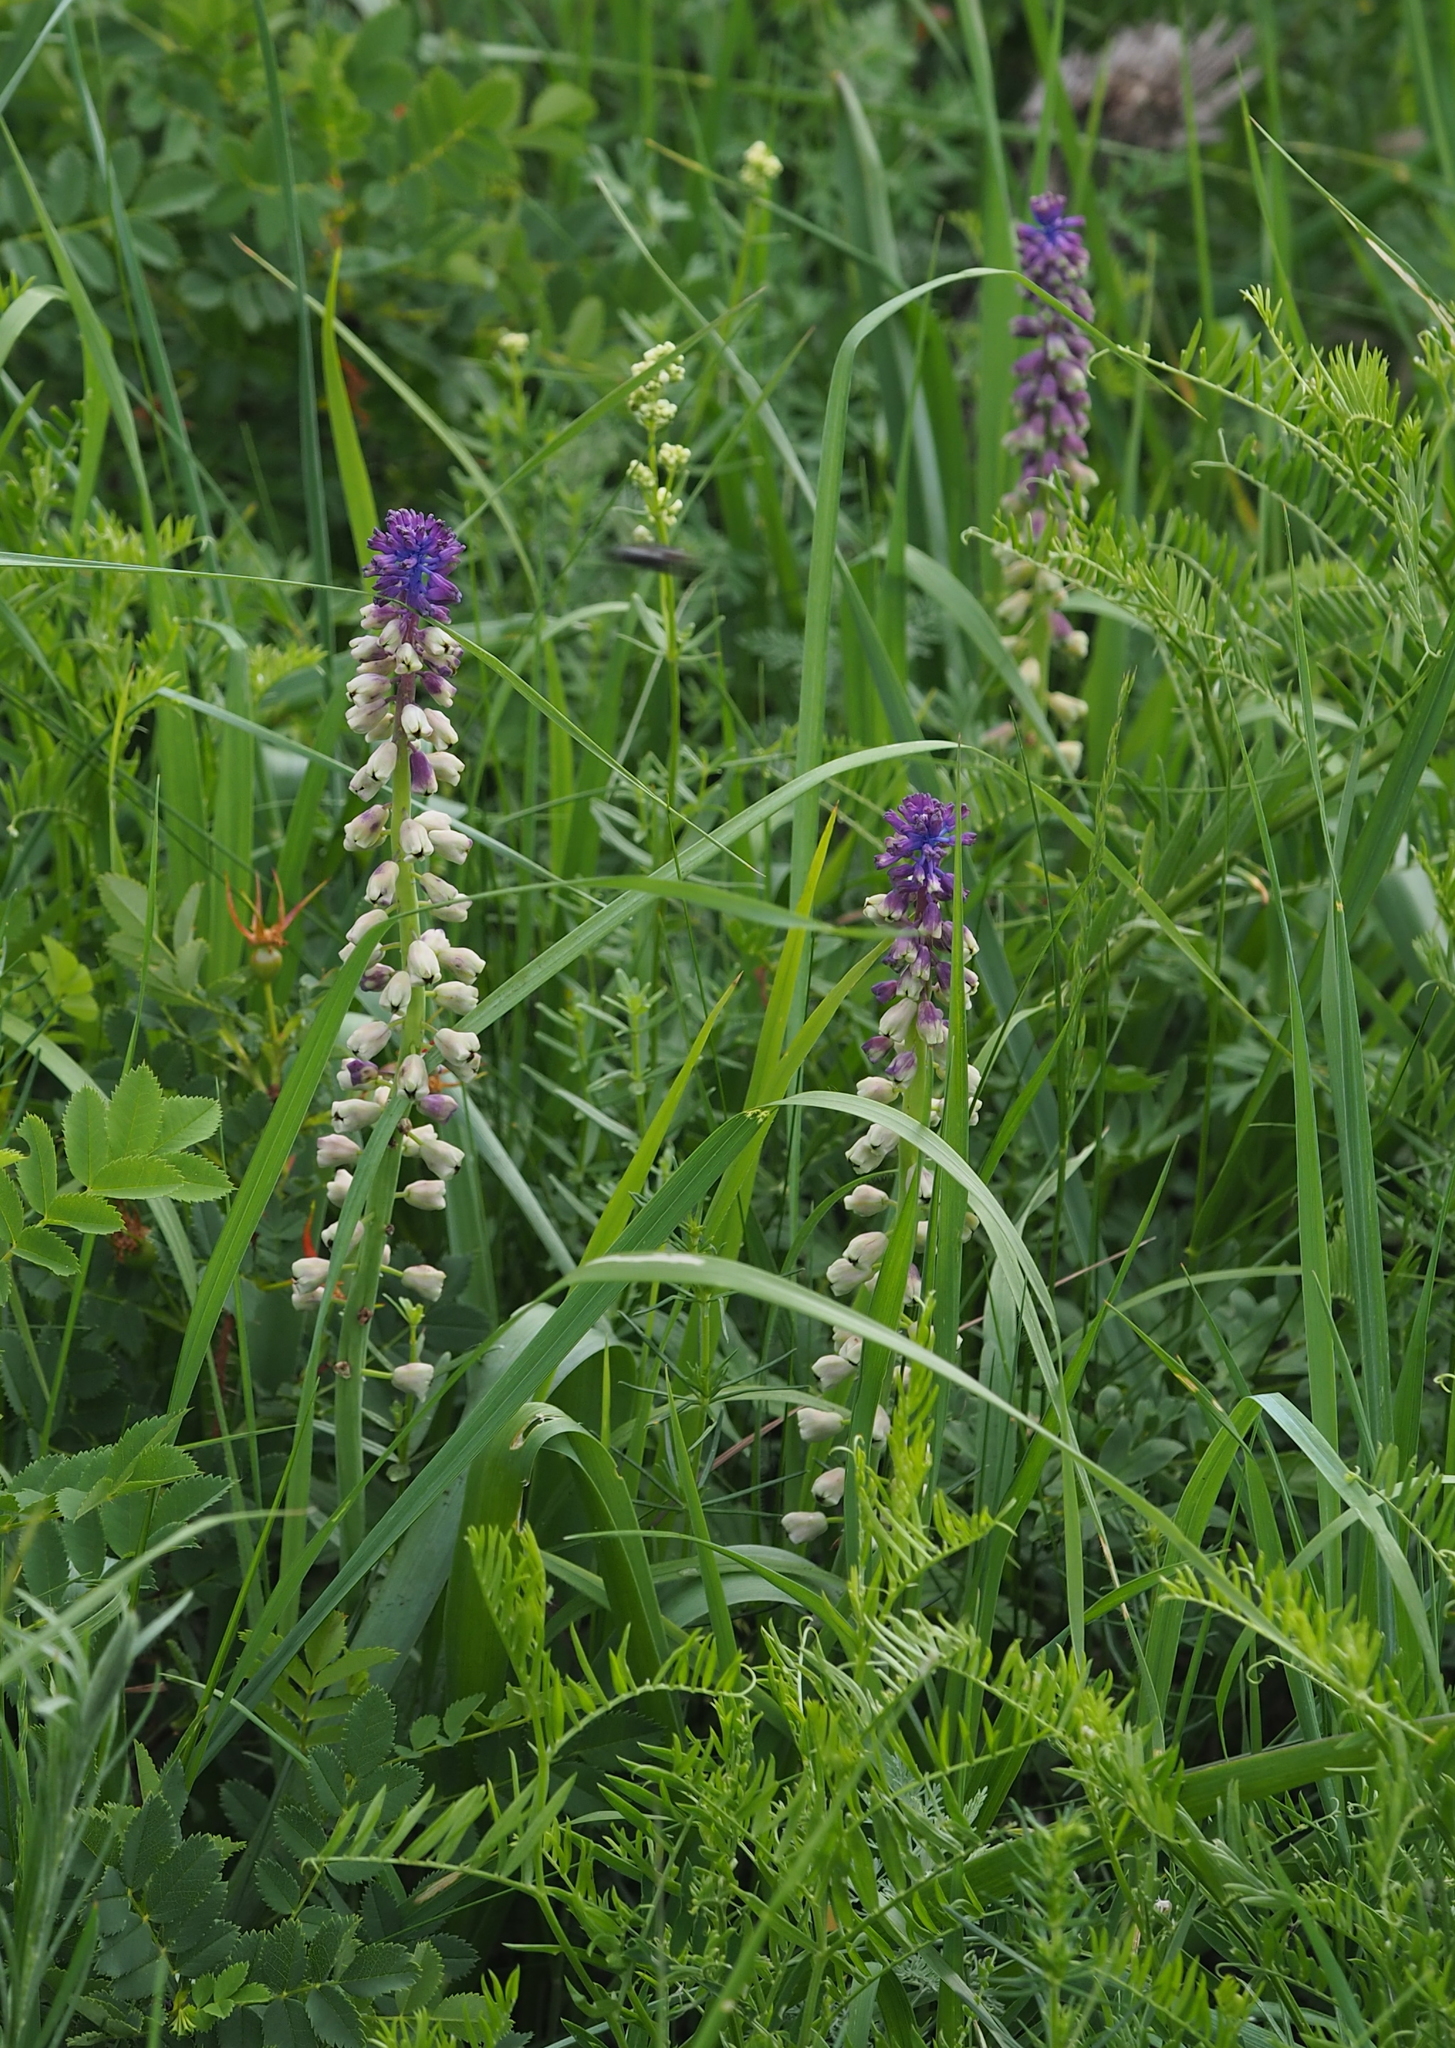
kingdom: Plantae
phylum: Tracheophyta
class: Liliopsida
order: Asparagales
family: Asparagaceae
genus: Muscari
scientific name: Muscari tenuiflorum
